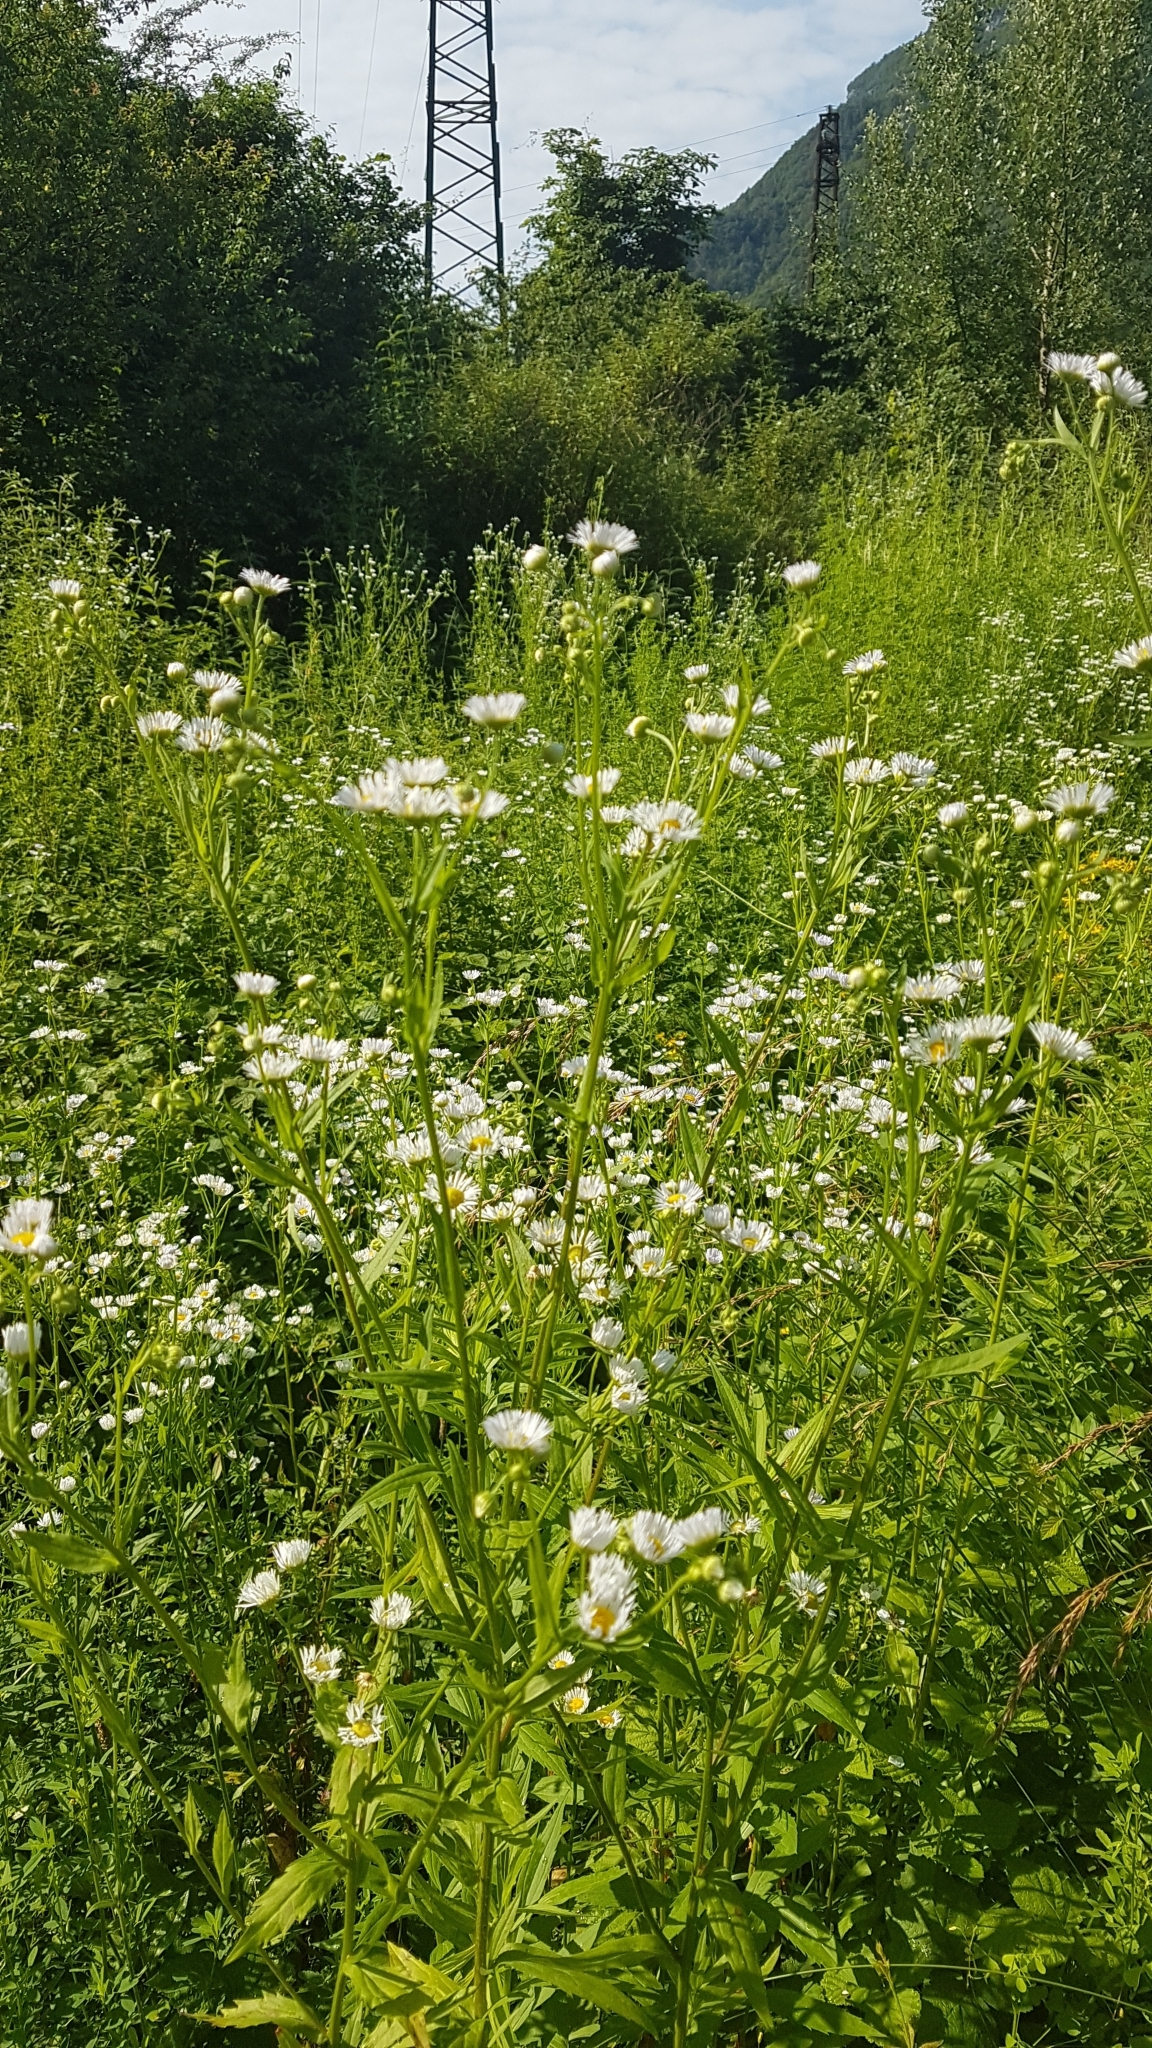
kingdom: Plantae
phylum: Tracheophyta
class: Magnoliopsida
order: Asterales
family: Asteraceae
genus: Erigeron
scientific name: Erigeron annuus
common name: Tall fleabane
